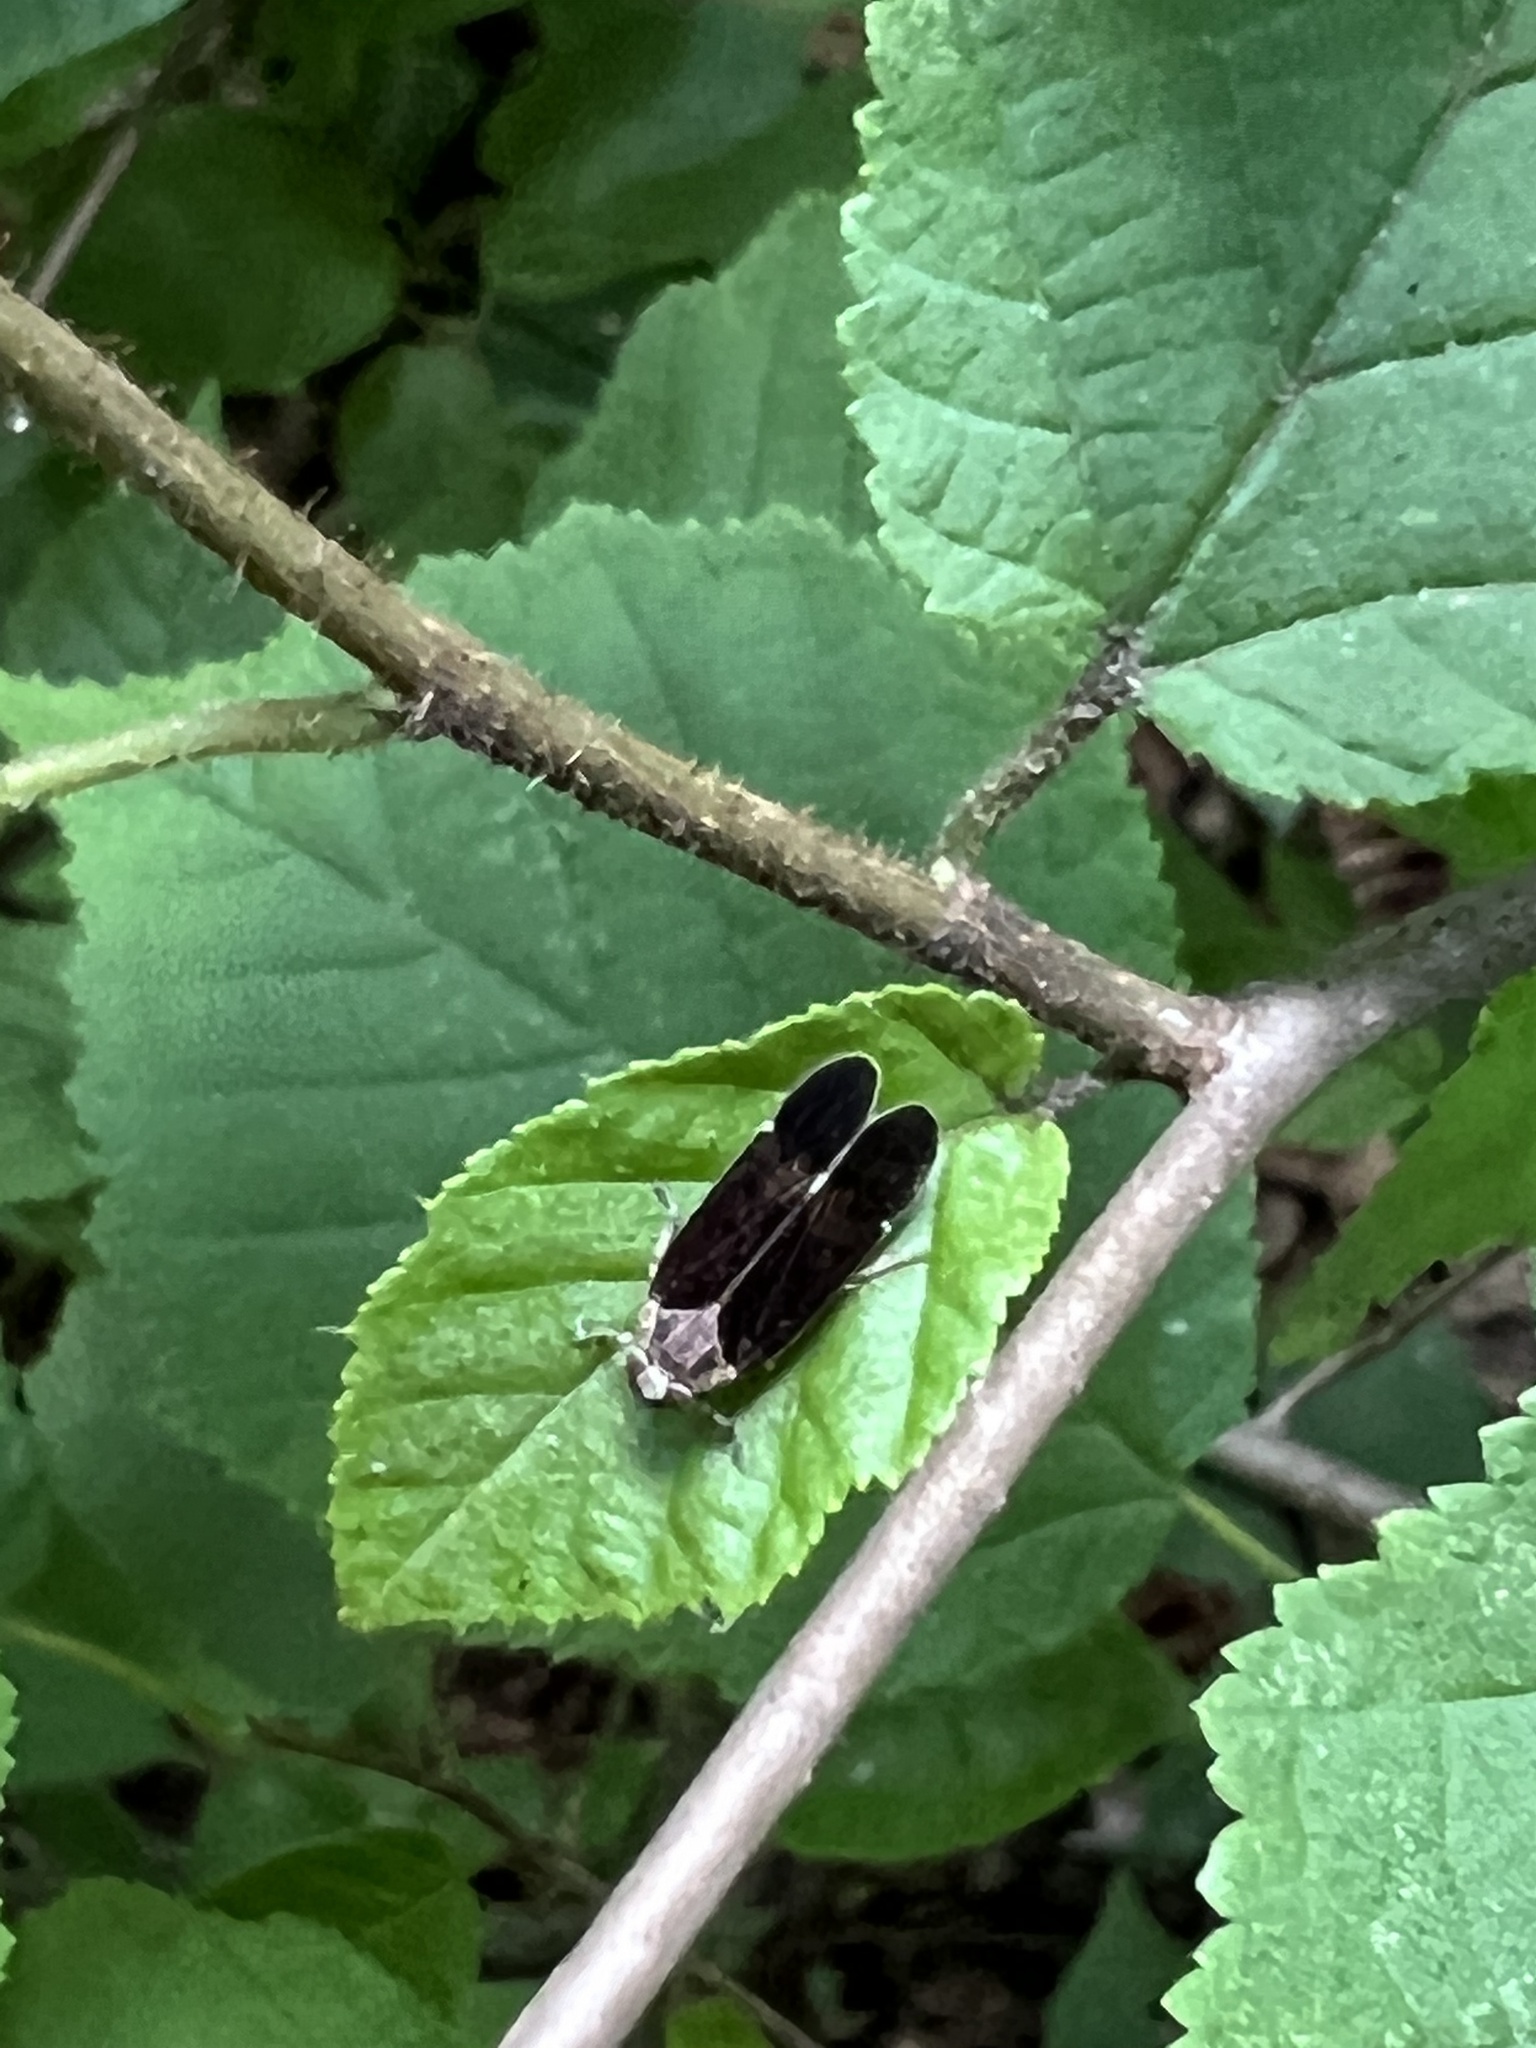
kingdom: Animalia
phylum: Arthropoda
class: Insecta
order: Hemiptera
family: Cixiidae
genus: Pentastiridius
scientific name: Pentastiridius cinnamoneus
